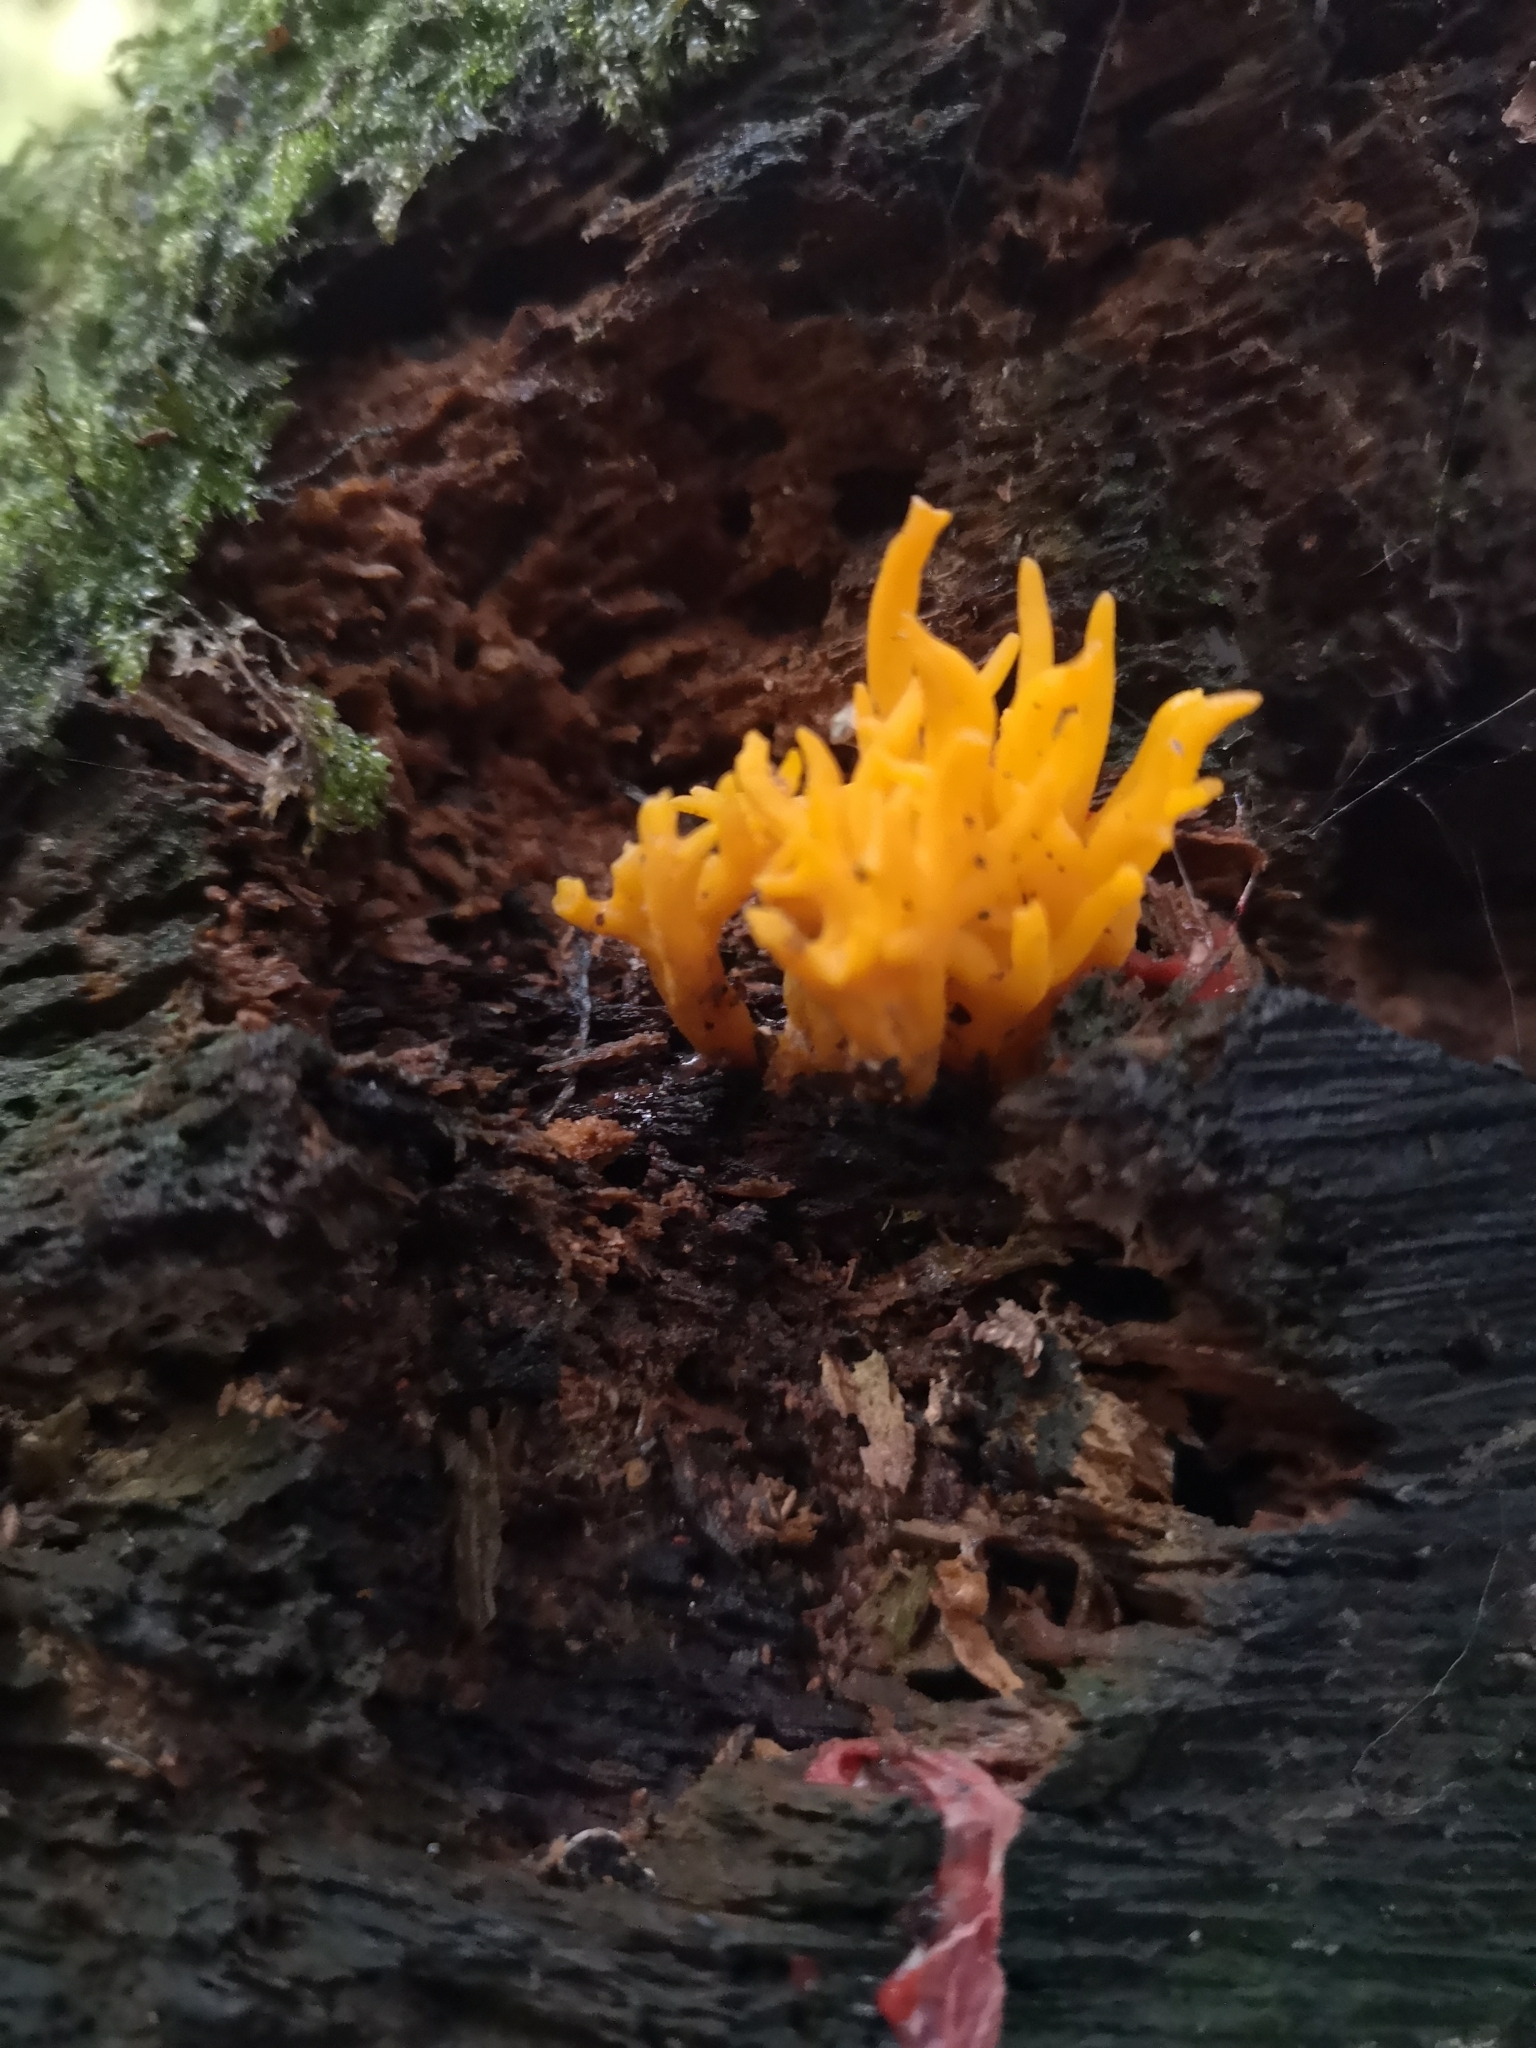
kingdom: Fungi
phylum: Basidiomycota
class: Dacrymycetes
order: Dacrymycetales
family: Dacrymycetaceae
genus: Calocera
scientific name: Calocera viscosa
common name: Yellow stagshorn
